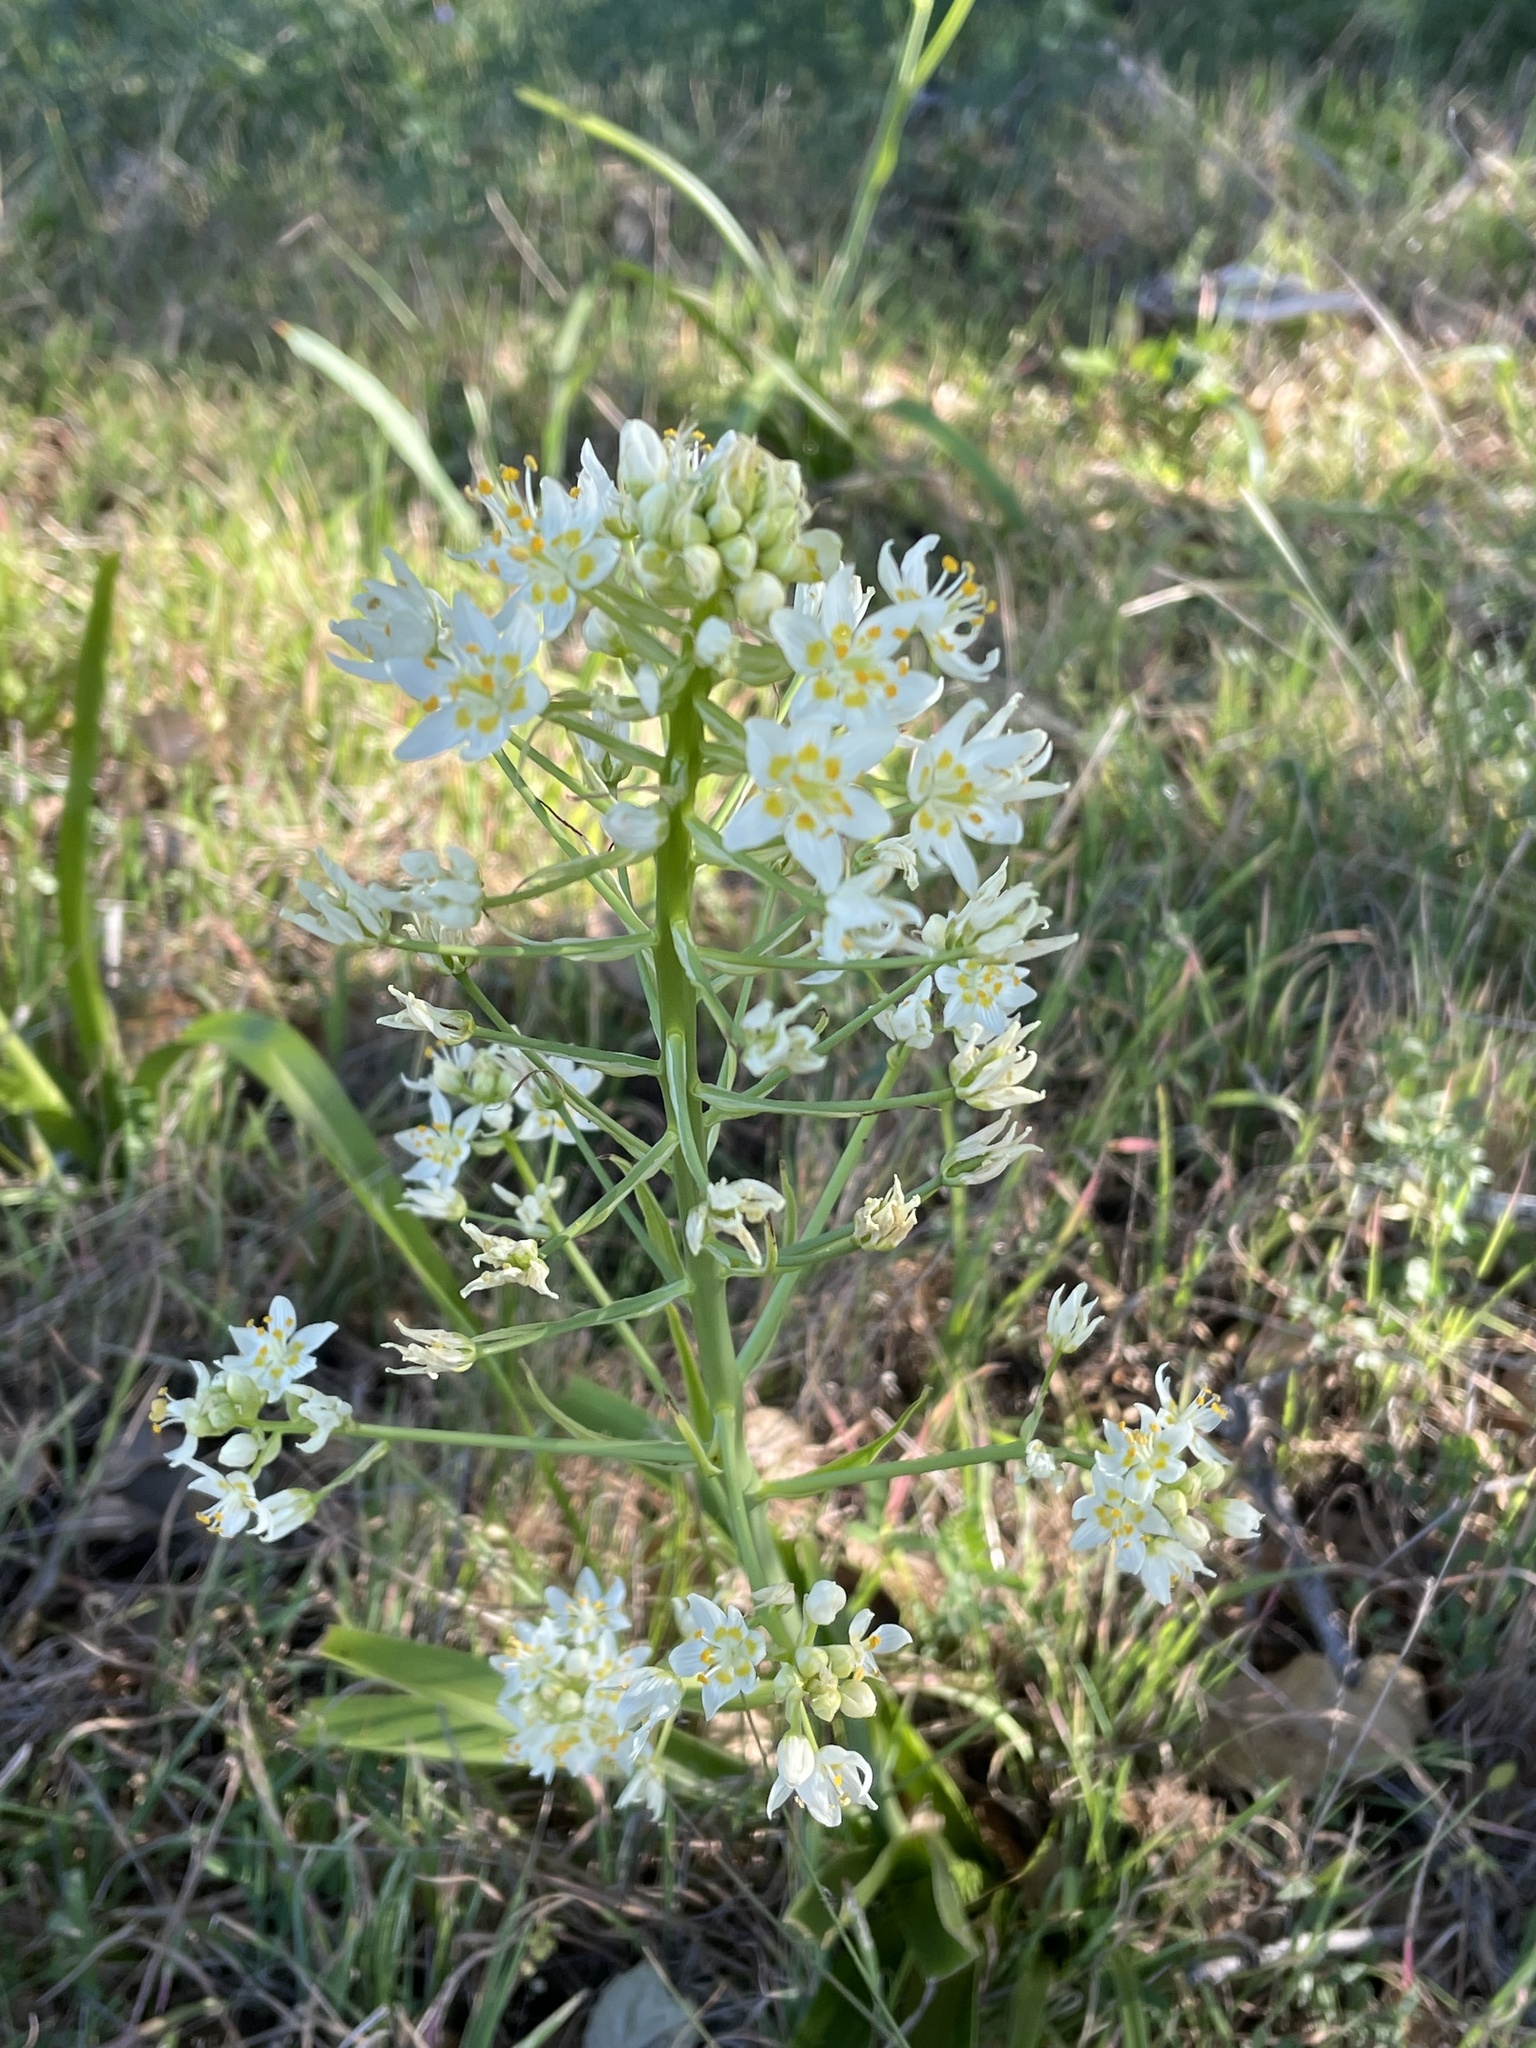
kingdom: Plantae
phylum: Tracheophyta
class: Liliopsida
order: Liliales
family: Melanthiaceae
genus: Toxicoscordion
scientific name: Toxicoscordion fremontii
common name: Fremont's death camas
